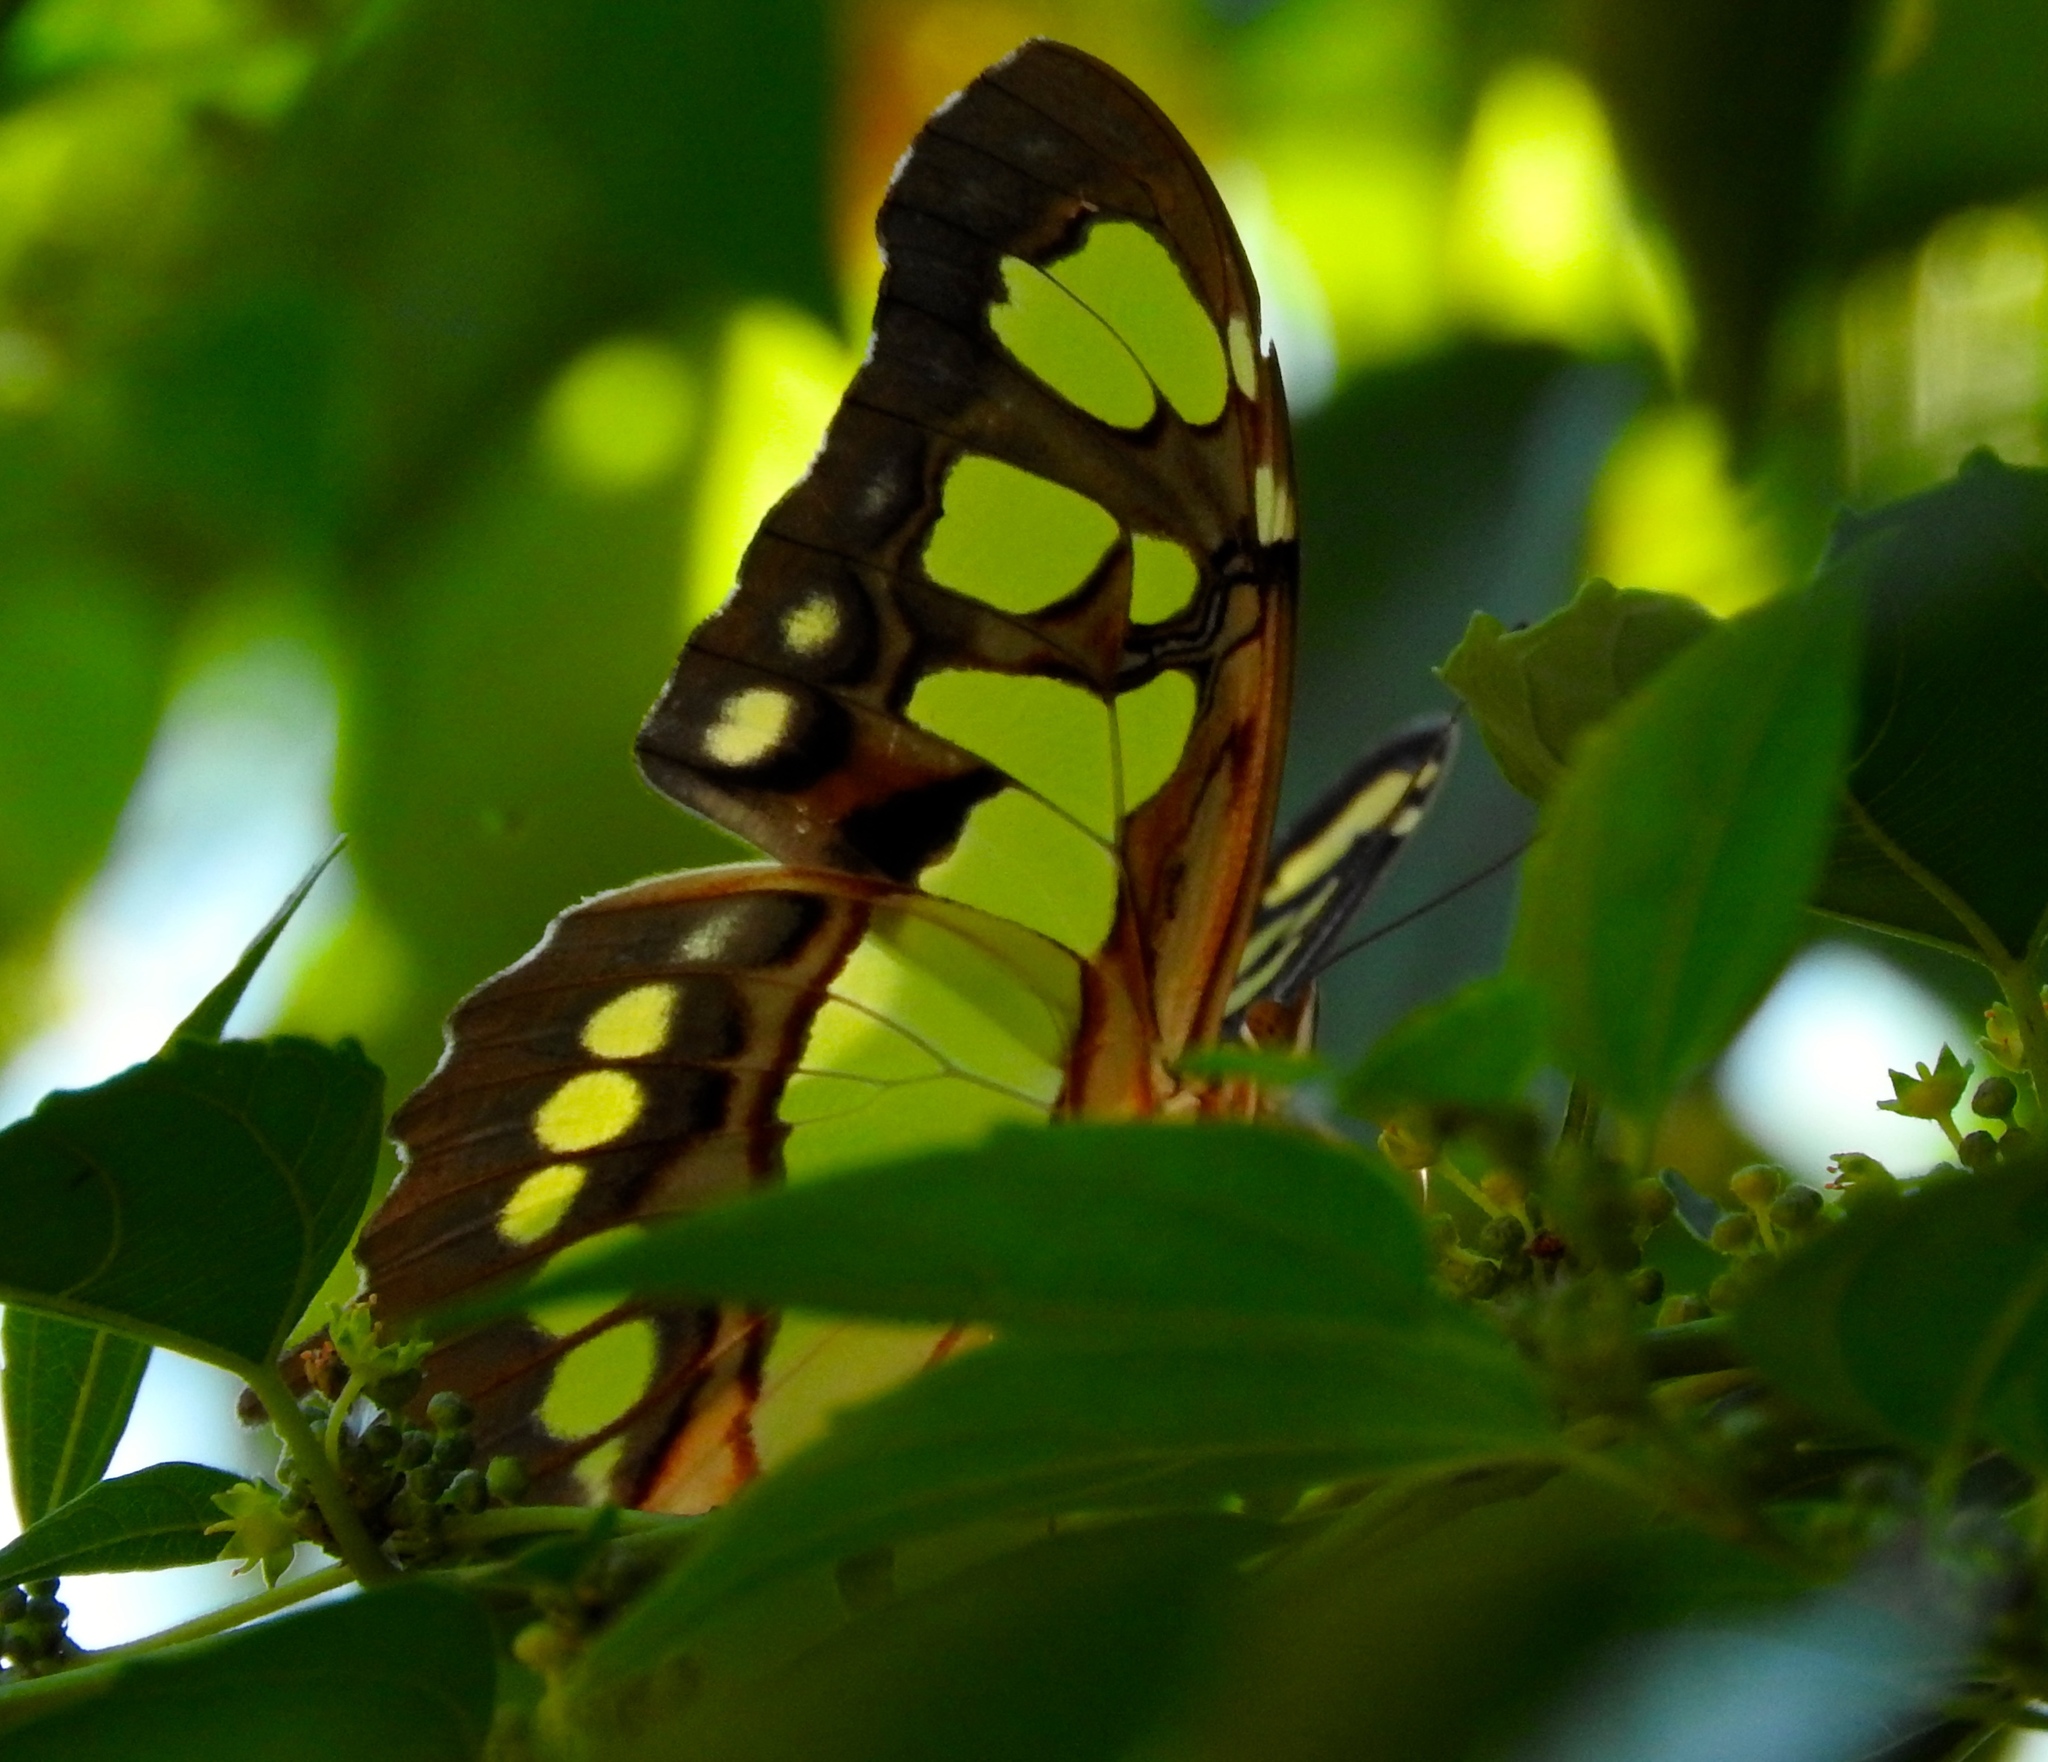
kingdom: Animalia
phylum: Arthropoda
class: Insecta
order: Lepidoptera
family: Nymphalidae
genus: Siproeta
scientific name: Siproeta stelenes
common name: Malachite
